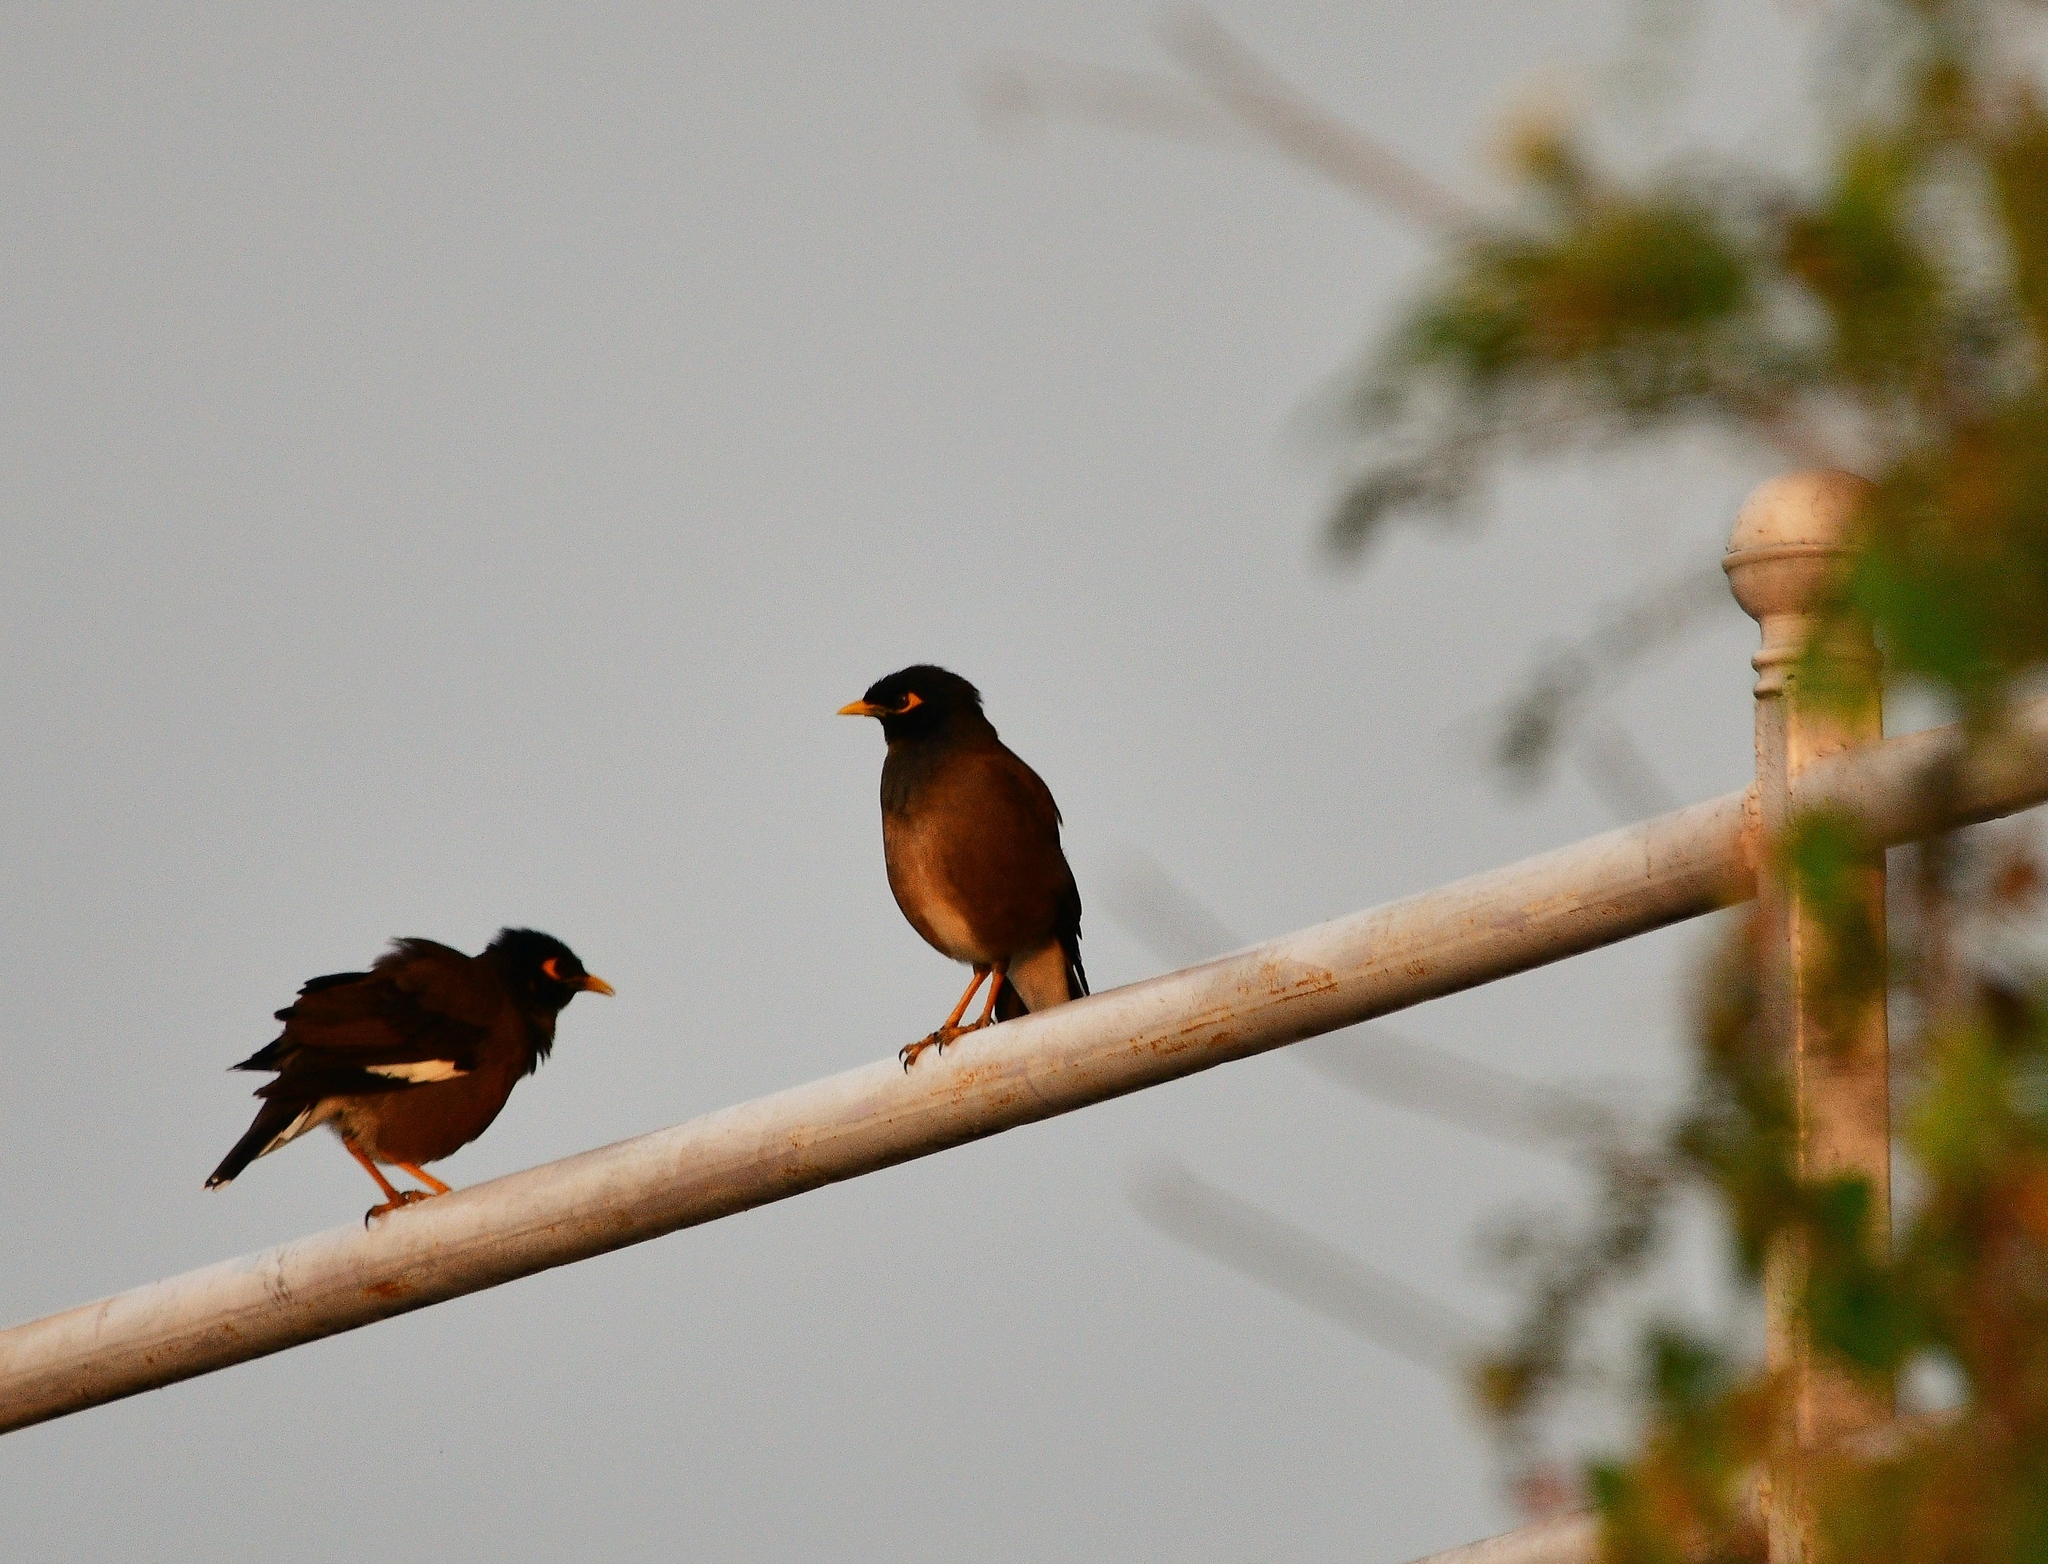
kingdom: Animalia
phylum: Chordata
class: Aves
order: Passeriformes
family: Sturnidae
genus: Acridotheres
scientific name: Acridotheres tristis
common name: Common myna
